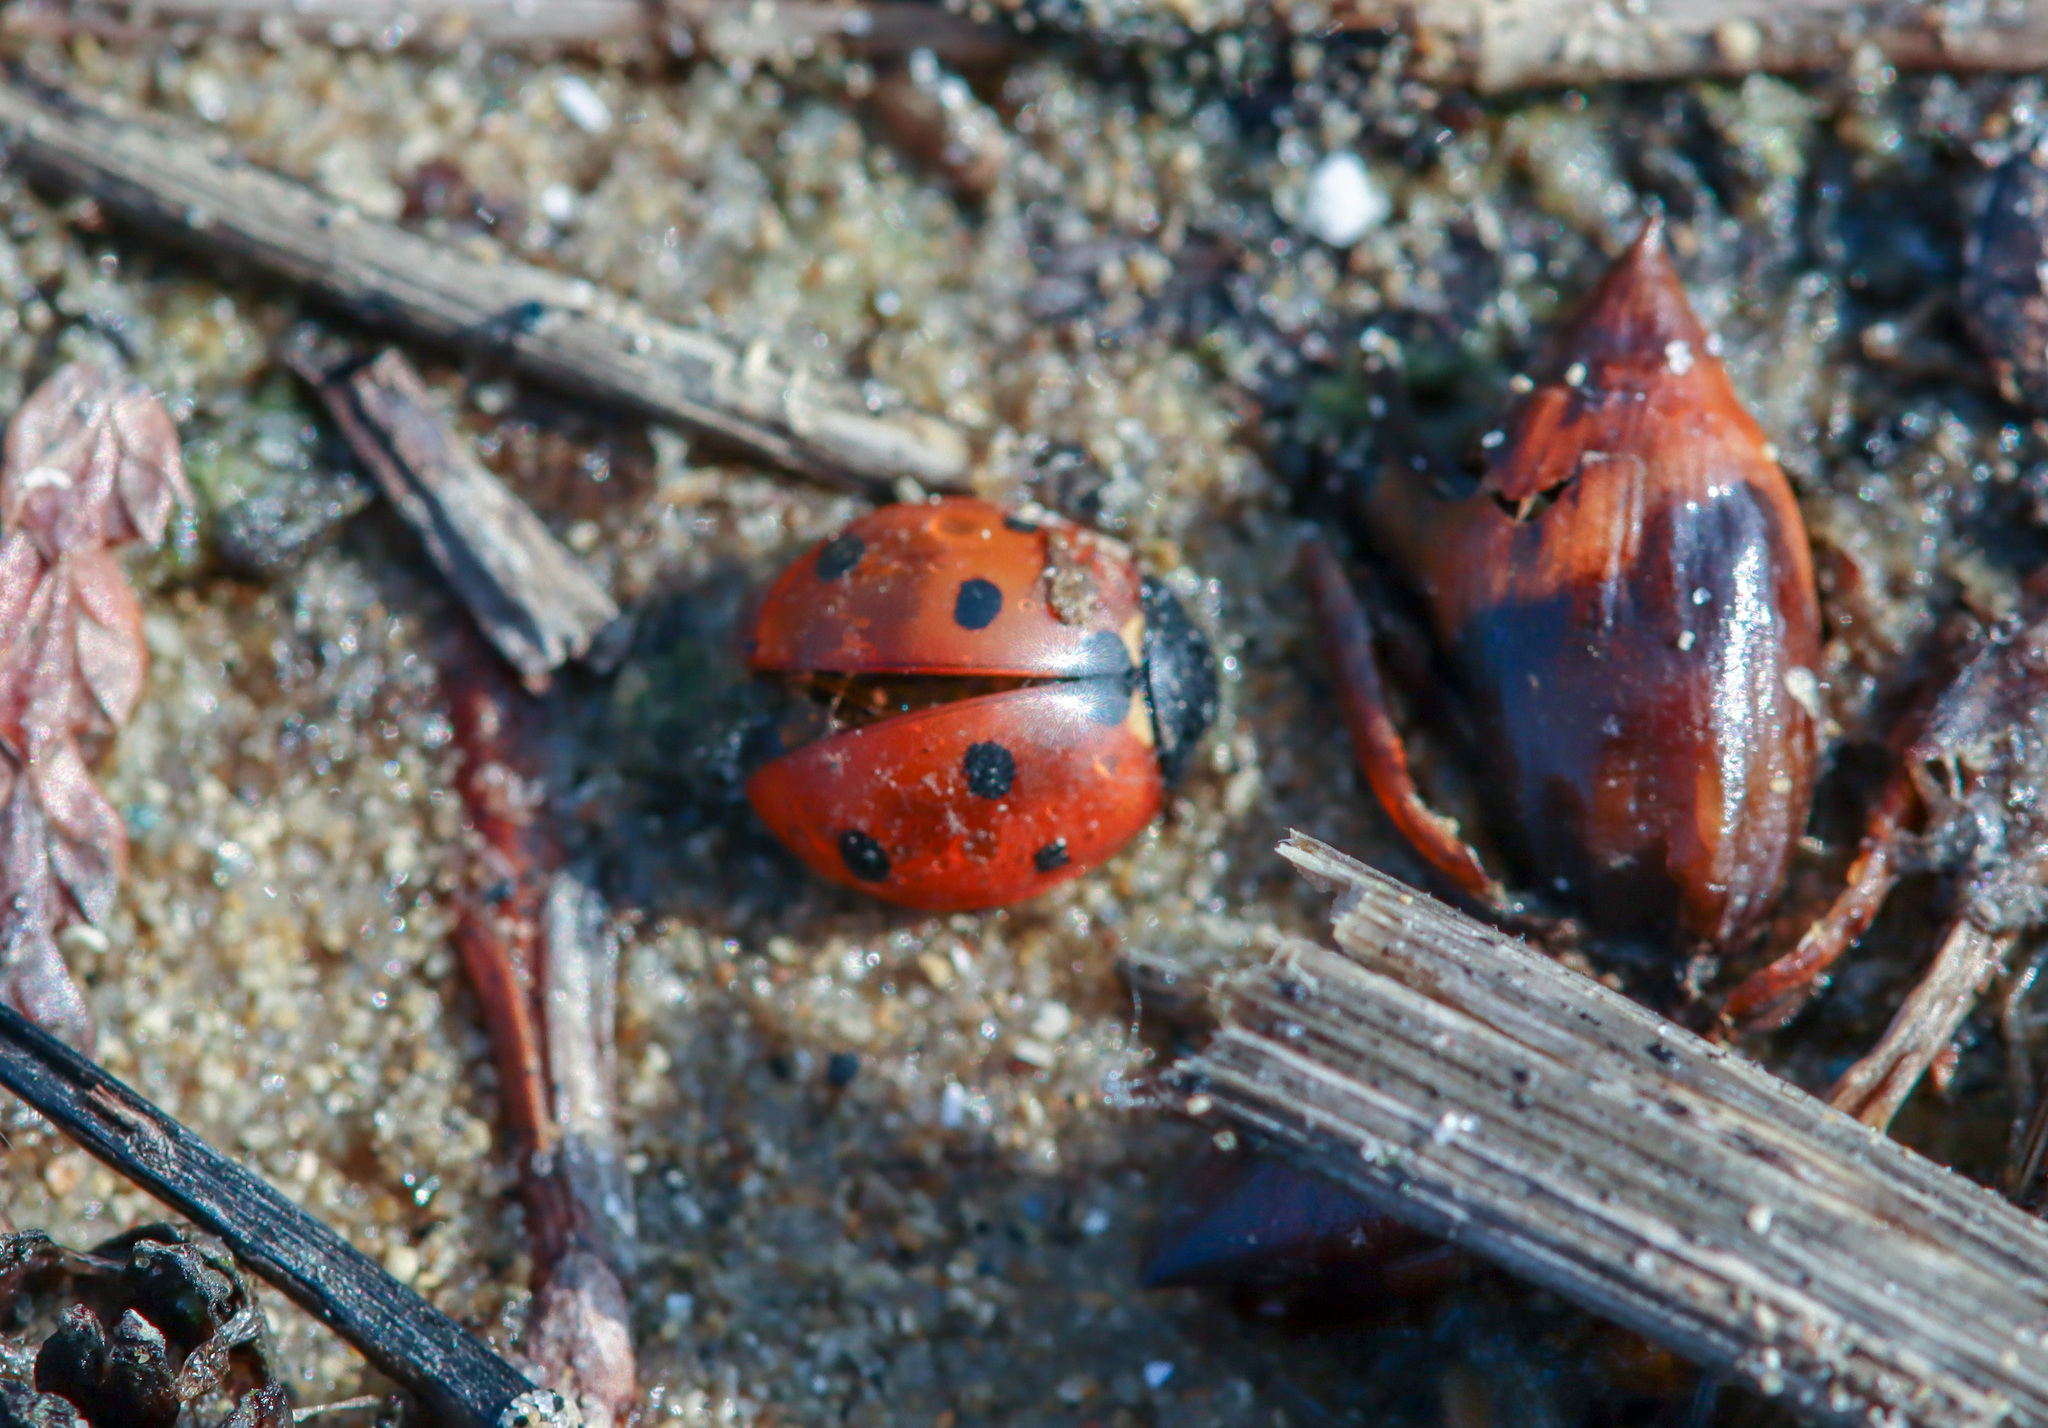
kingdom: Animalia
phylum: Arthropoda
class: Insecta
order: Coleoptera
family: Coccinellidae
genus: Coccinella
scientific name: Coccinella septempunctata
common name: Sevenspotted lady beetle
